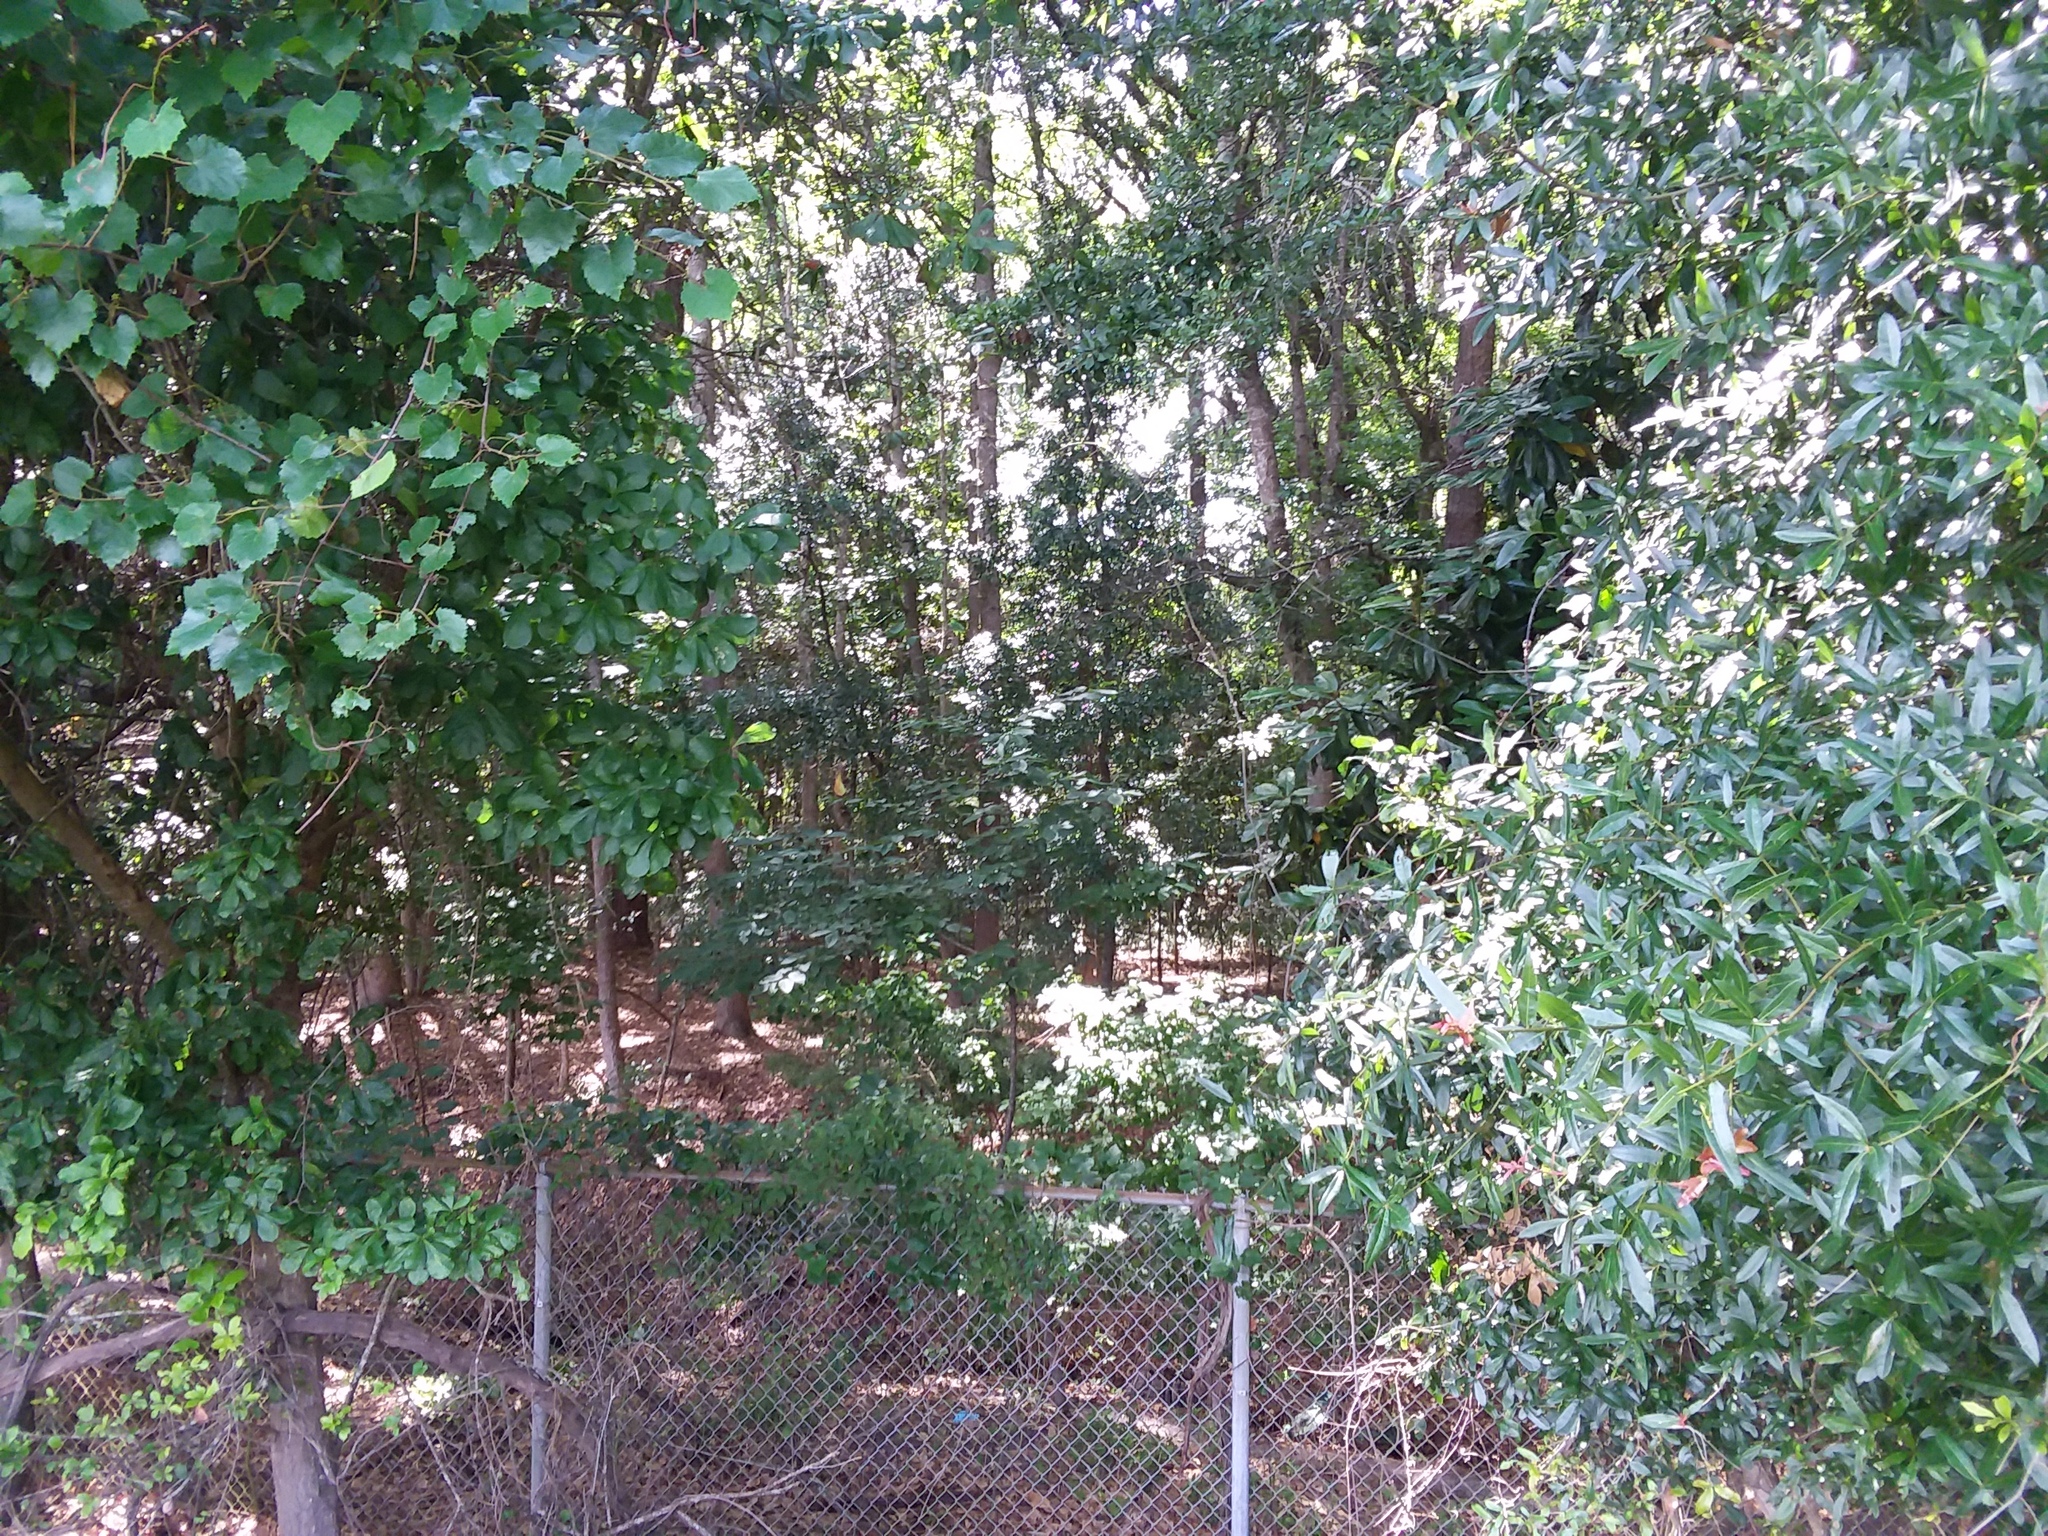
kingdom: Plantae
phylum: Tracheophyta
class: Magnoliopsida
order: Ericales
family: Ebenaceae
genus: Diospyros
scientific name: Diospyros virginiana
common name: Persimmon
